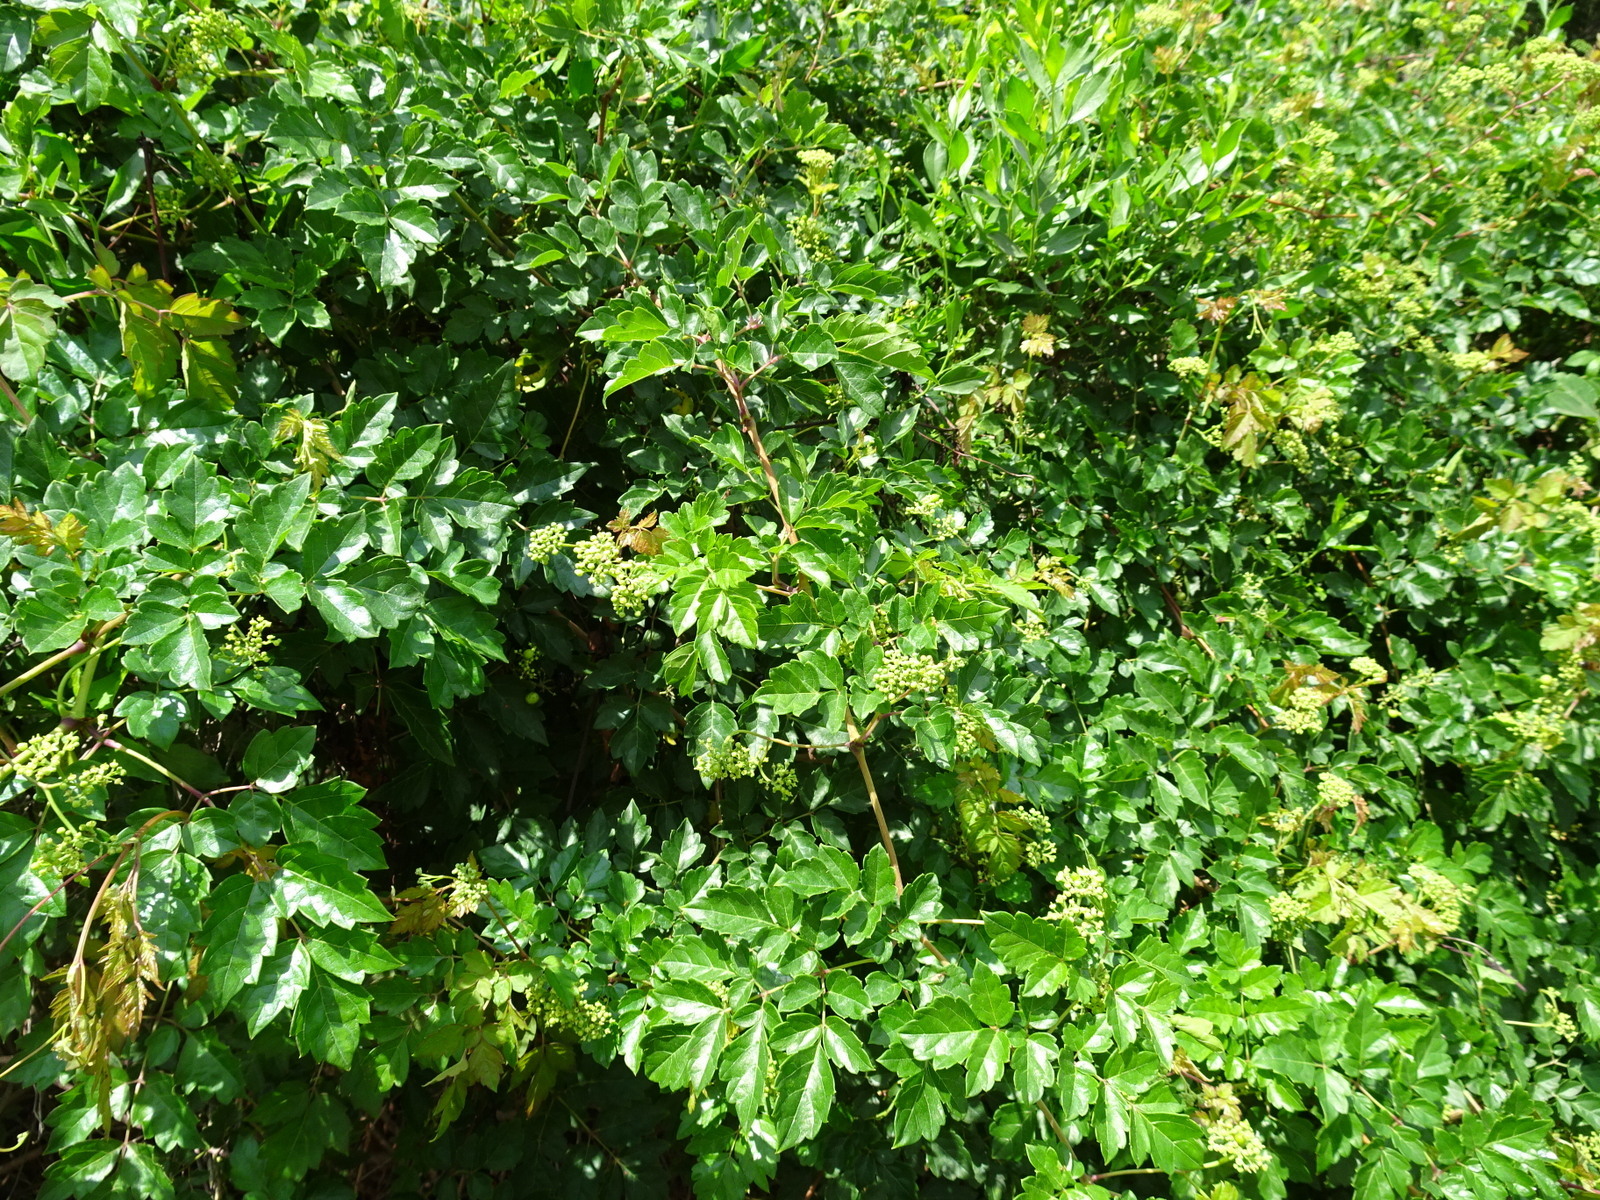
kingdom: Plantae
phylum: Tracheophyta
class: Magnoliopsida
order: Vitales
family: Vitaceae
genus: Nekemias
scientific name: Nekemias arborea
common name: Peppervine
